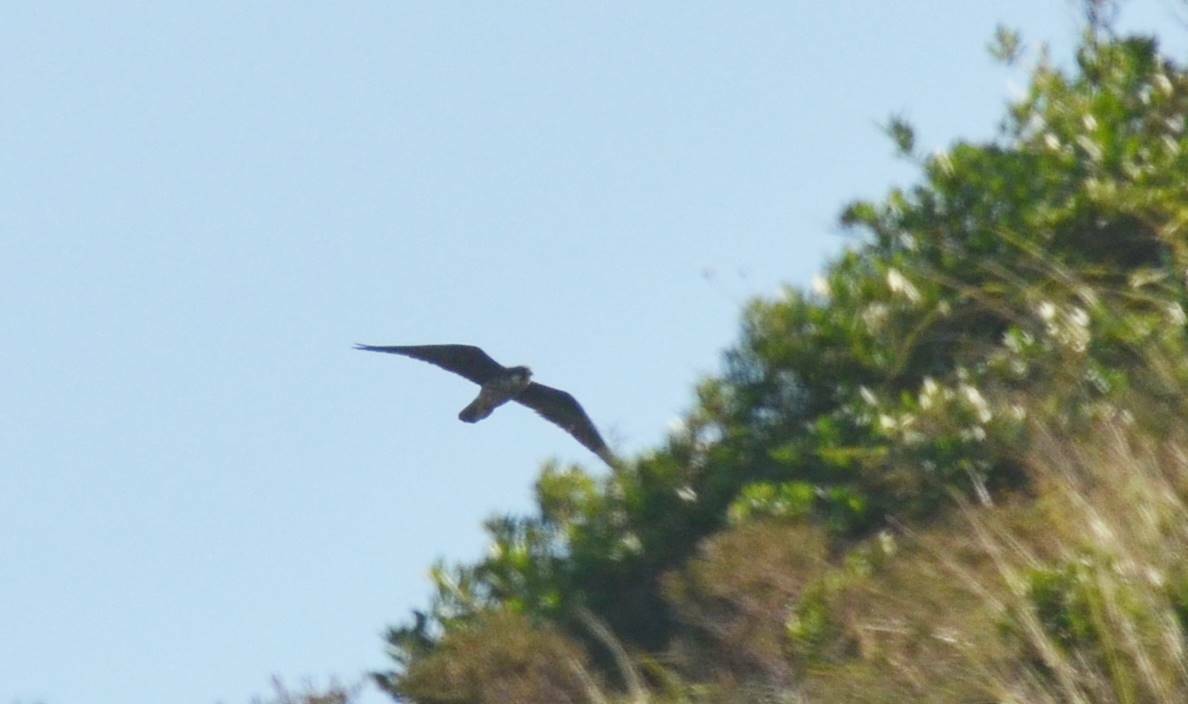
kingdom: Animalia
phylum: Chordata
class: Aves
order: Falconiformes
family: Falconidae
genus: Falco
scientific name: Falco subbuteo
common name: Eurasian hobby
